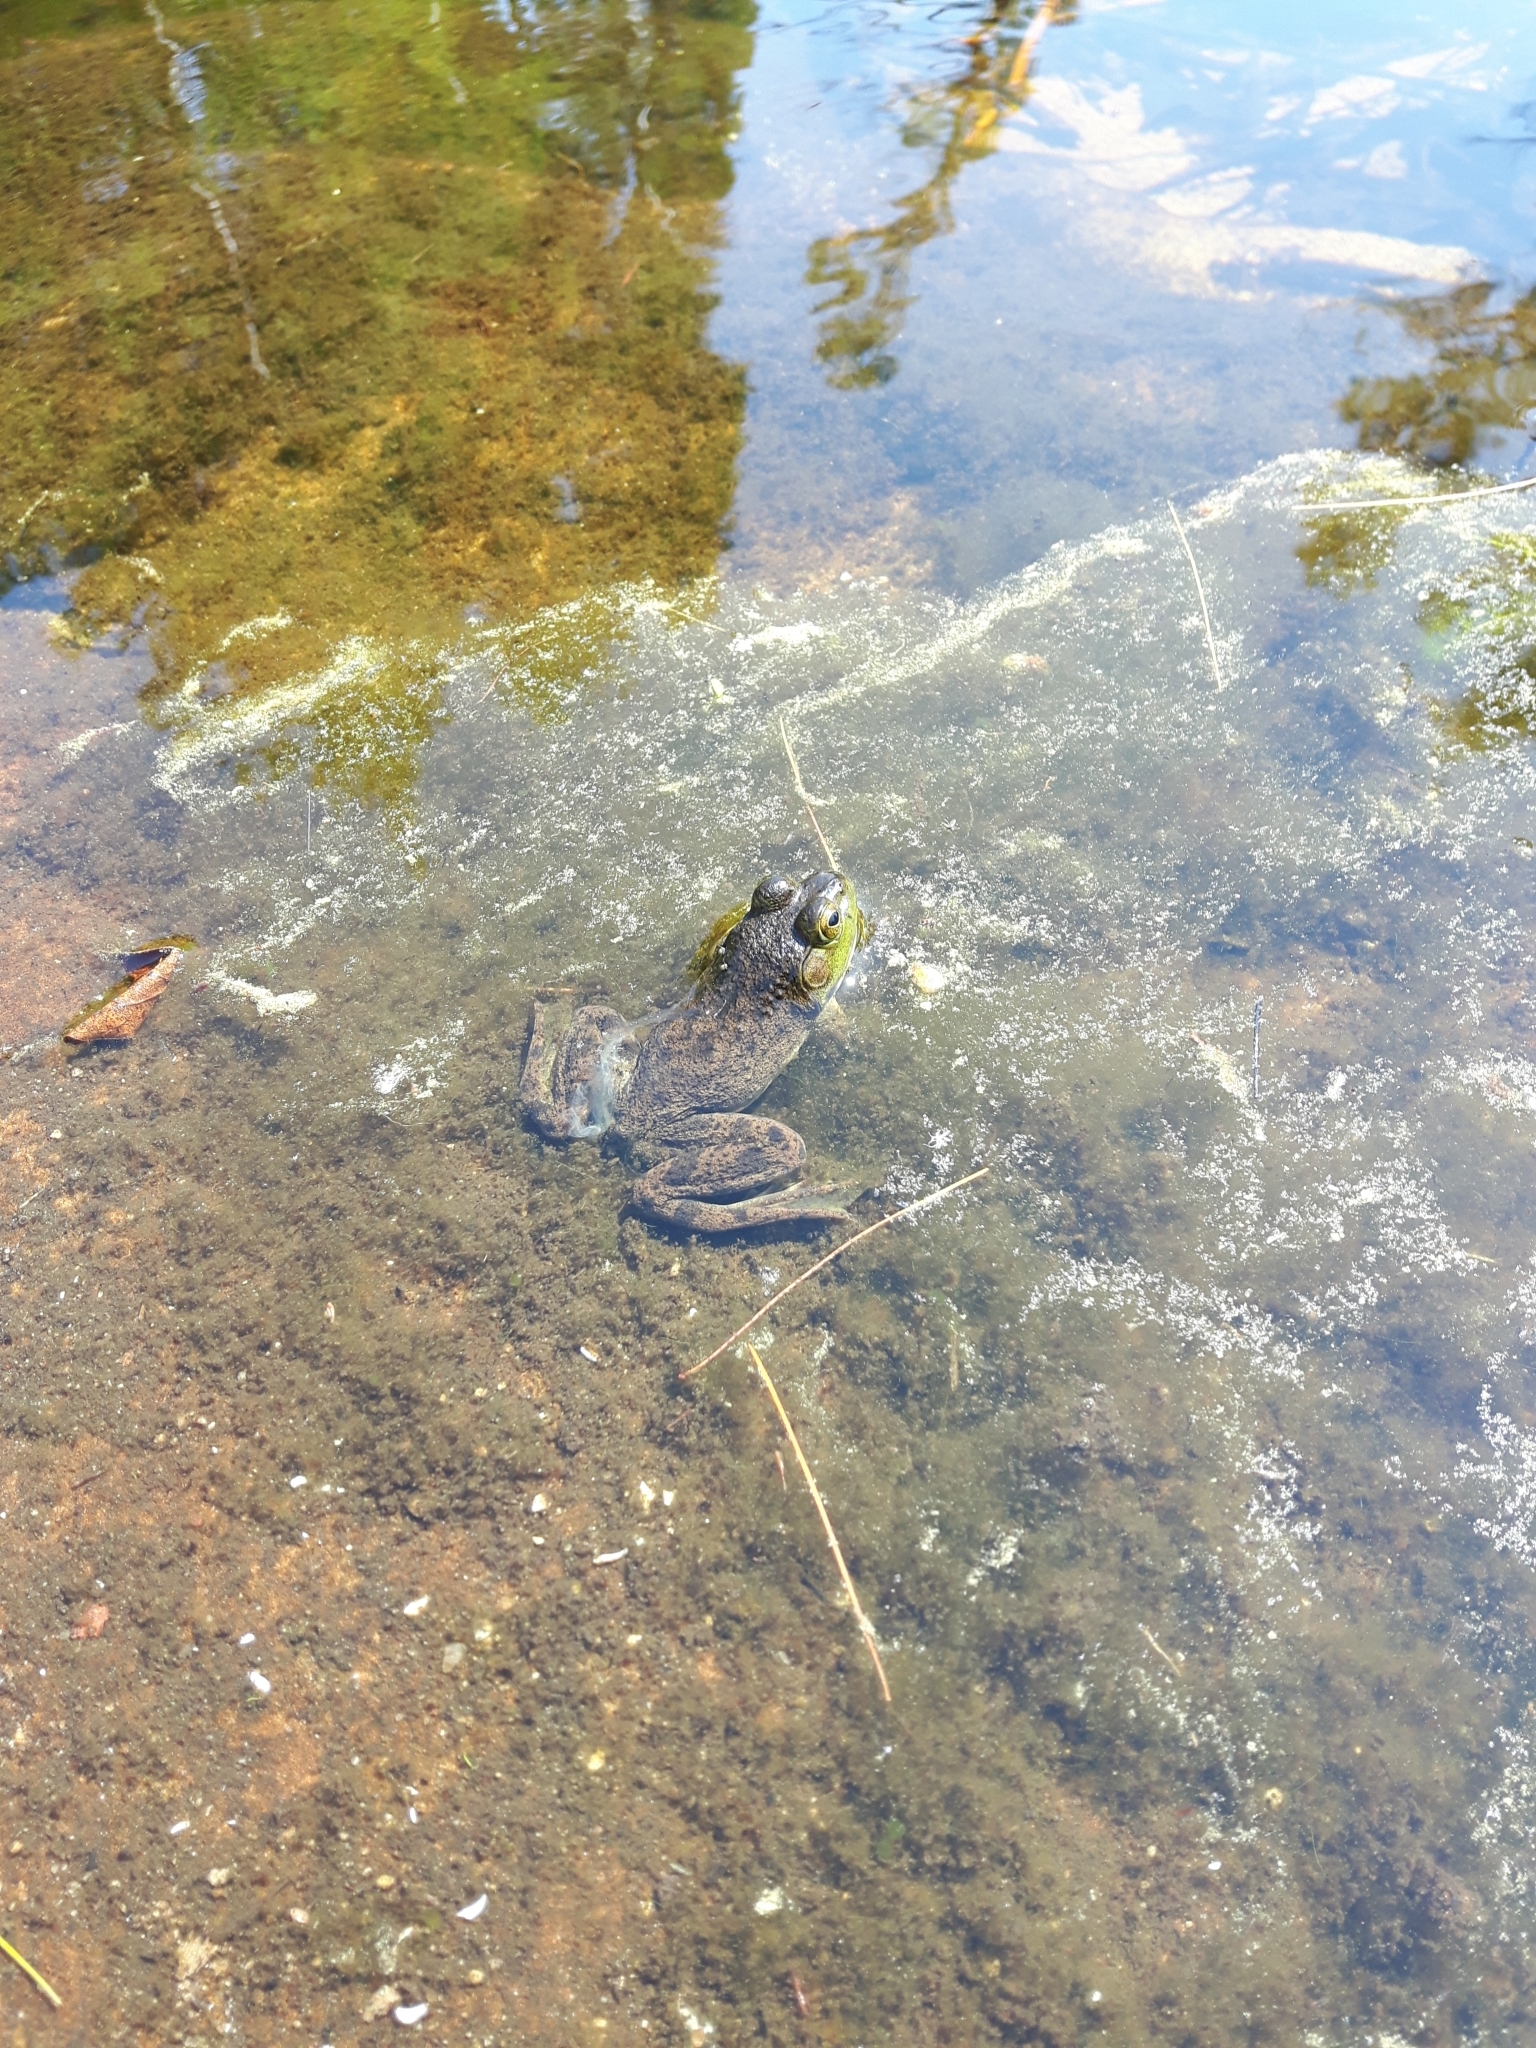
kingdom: Animalia
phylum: Chordata
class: Amphibia
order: Anura
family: Ranidae
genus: Lithobates
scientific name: Lithobates catesbeianus
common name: American bullfrog
